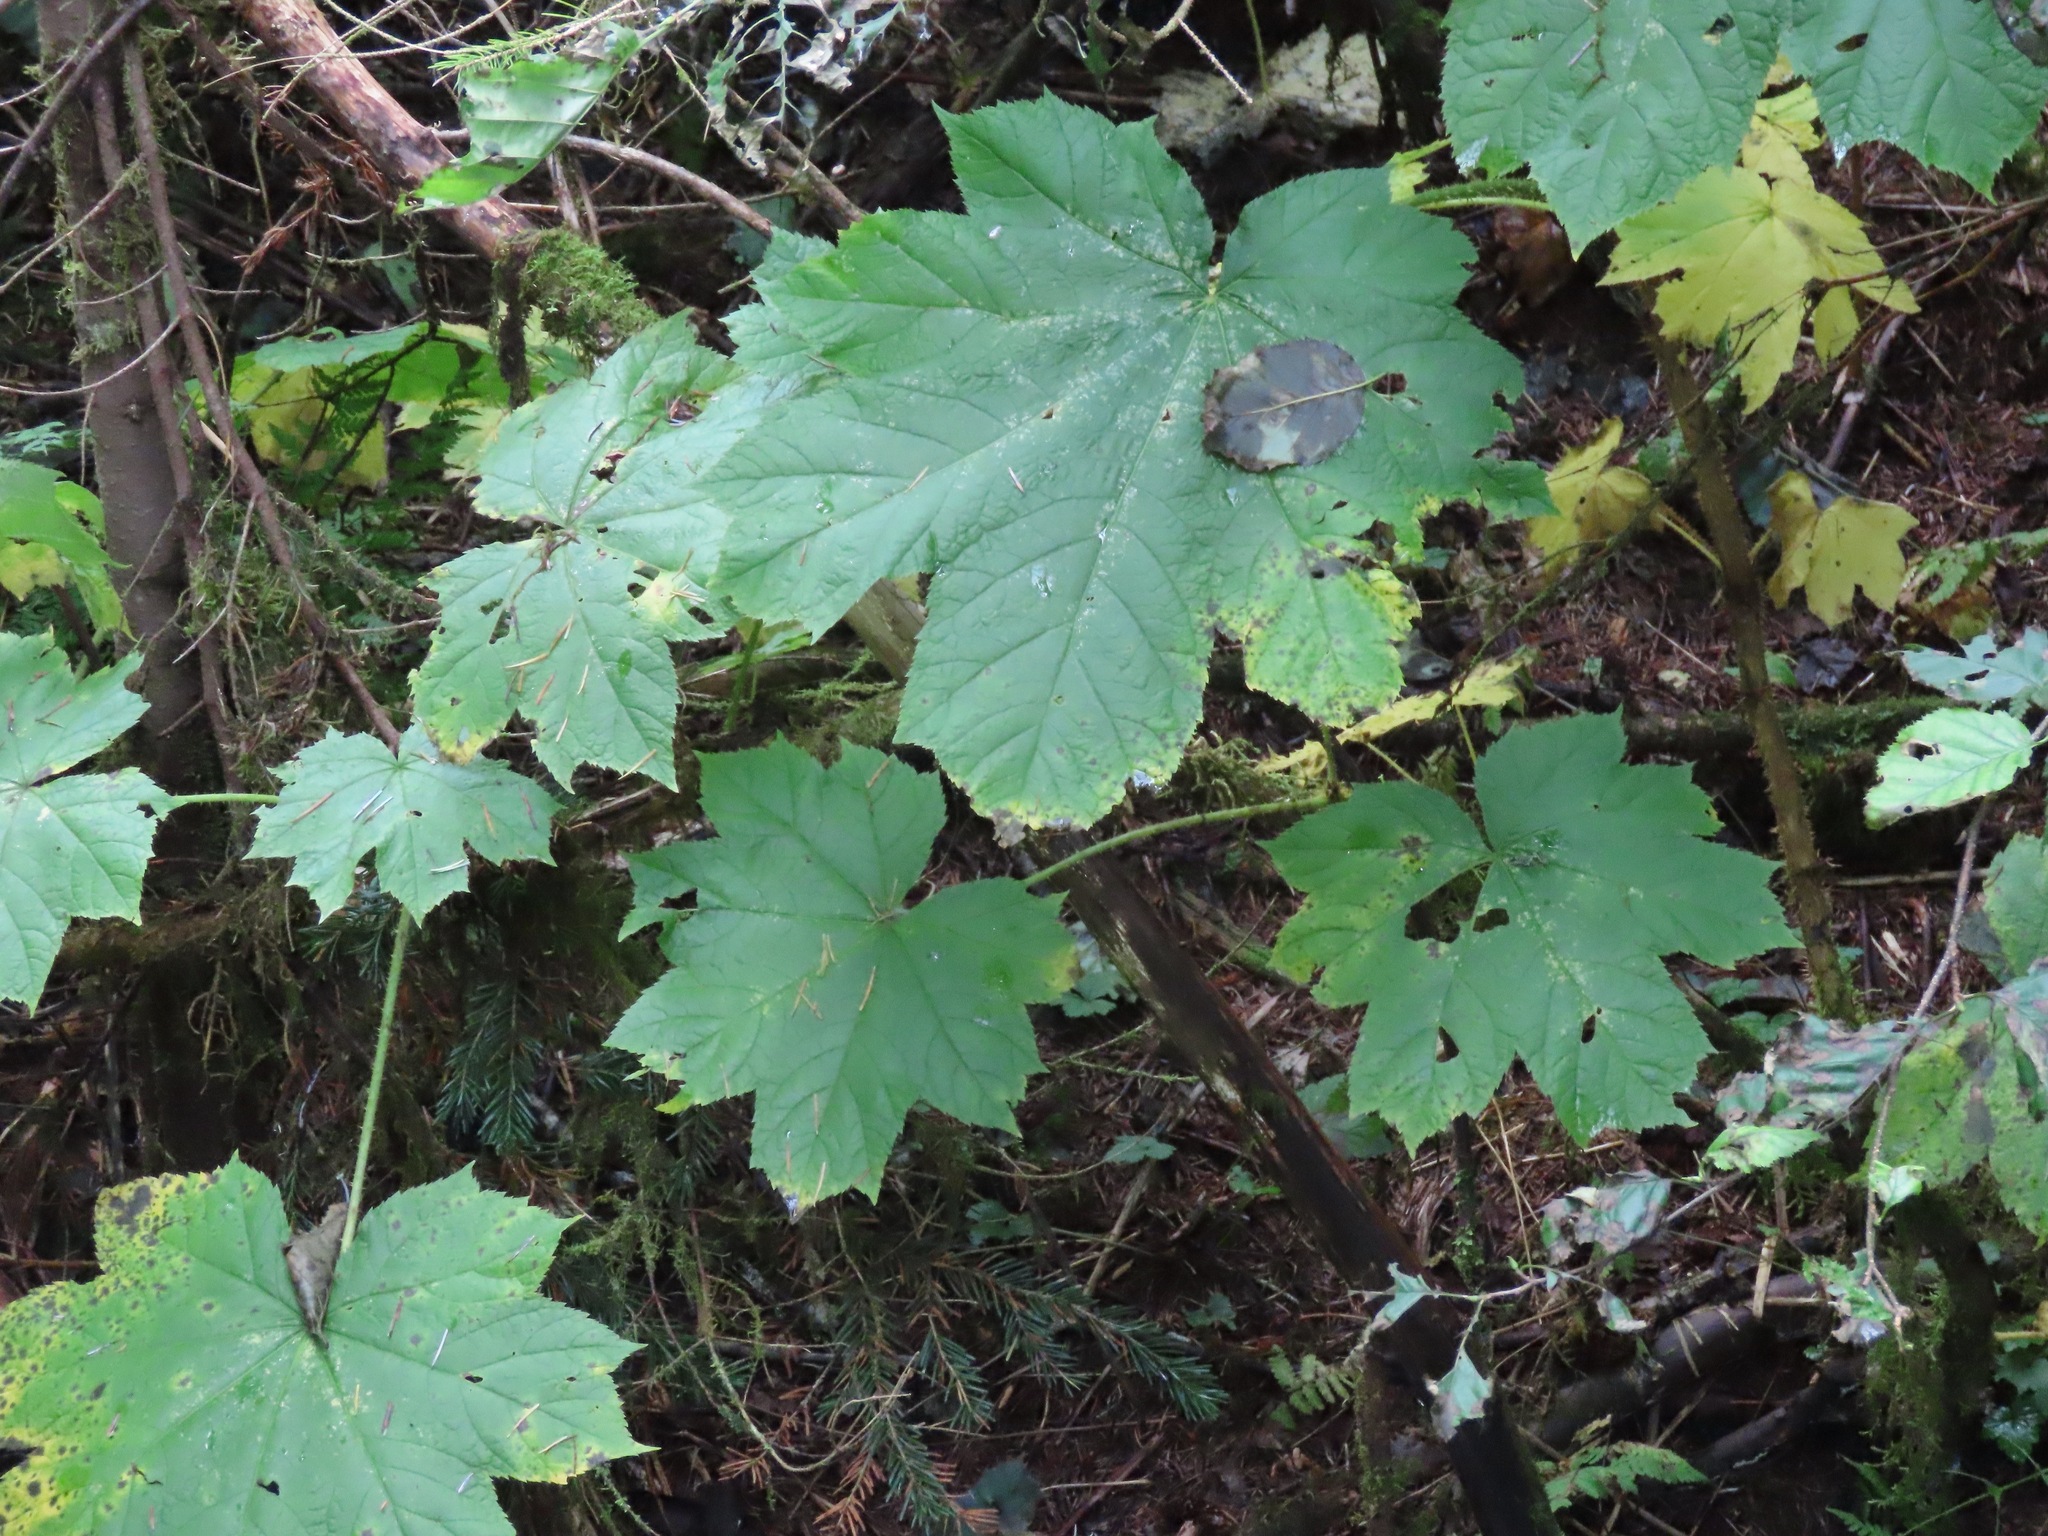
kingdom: Plantae
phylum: Tracheophyta
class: Magnoliopsida
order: Apiales
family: Araliaceae
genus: Oplopanax
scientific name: Oplopanax horridus
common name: Devil's walking-stick
